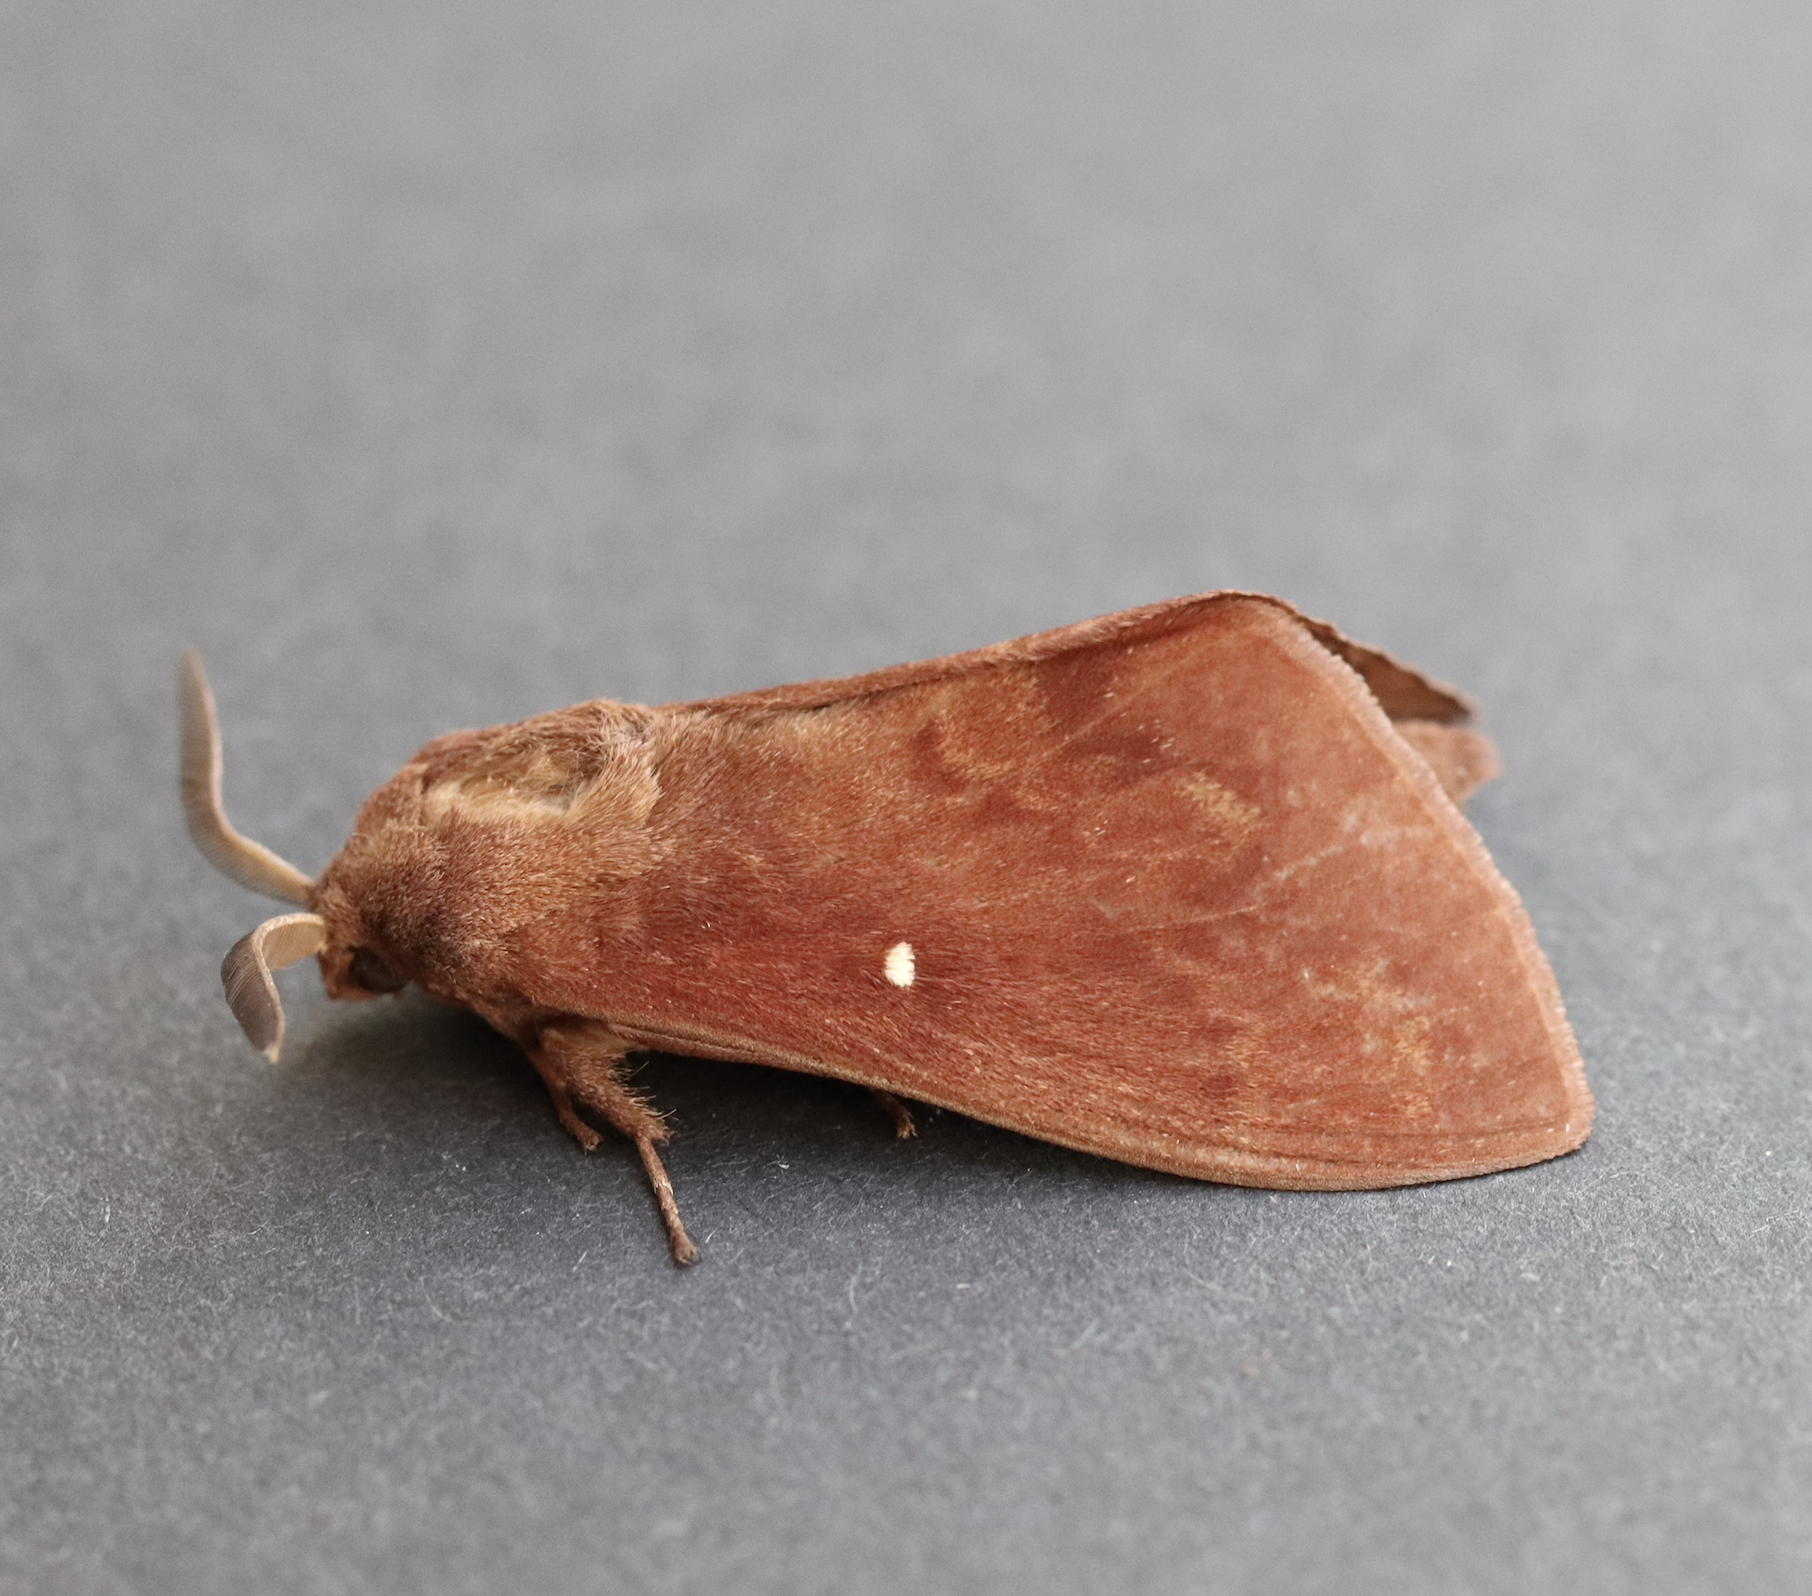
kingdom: Animalia
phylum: Arthropoda
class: Insecta
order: Lepidoptera
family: Lasiocampidae
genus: Dendrolimus
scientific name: Dendrolimus pini
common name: Pine-tree lappet
